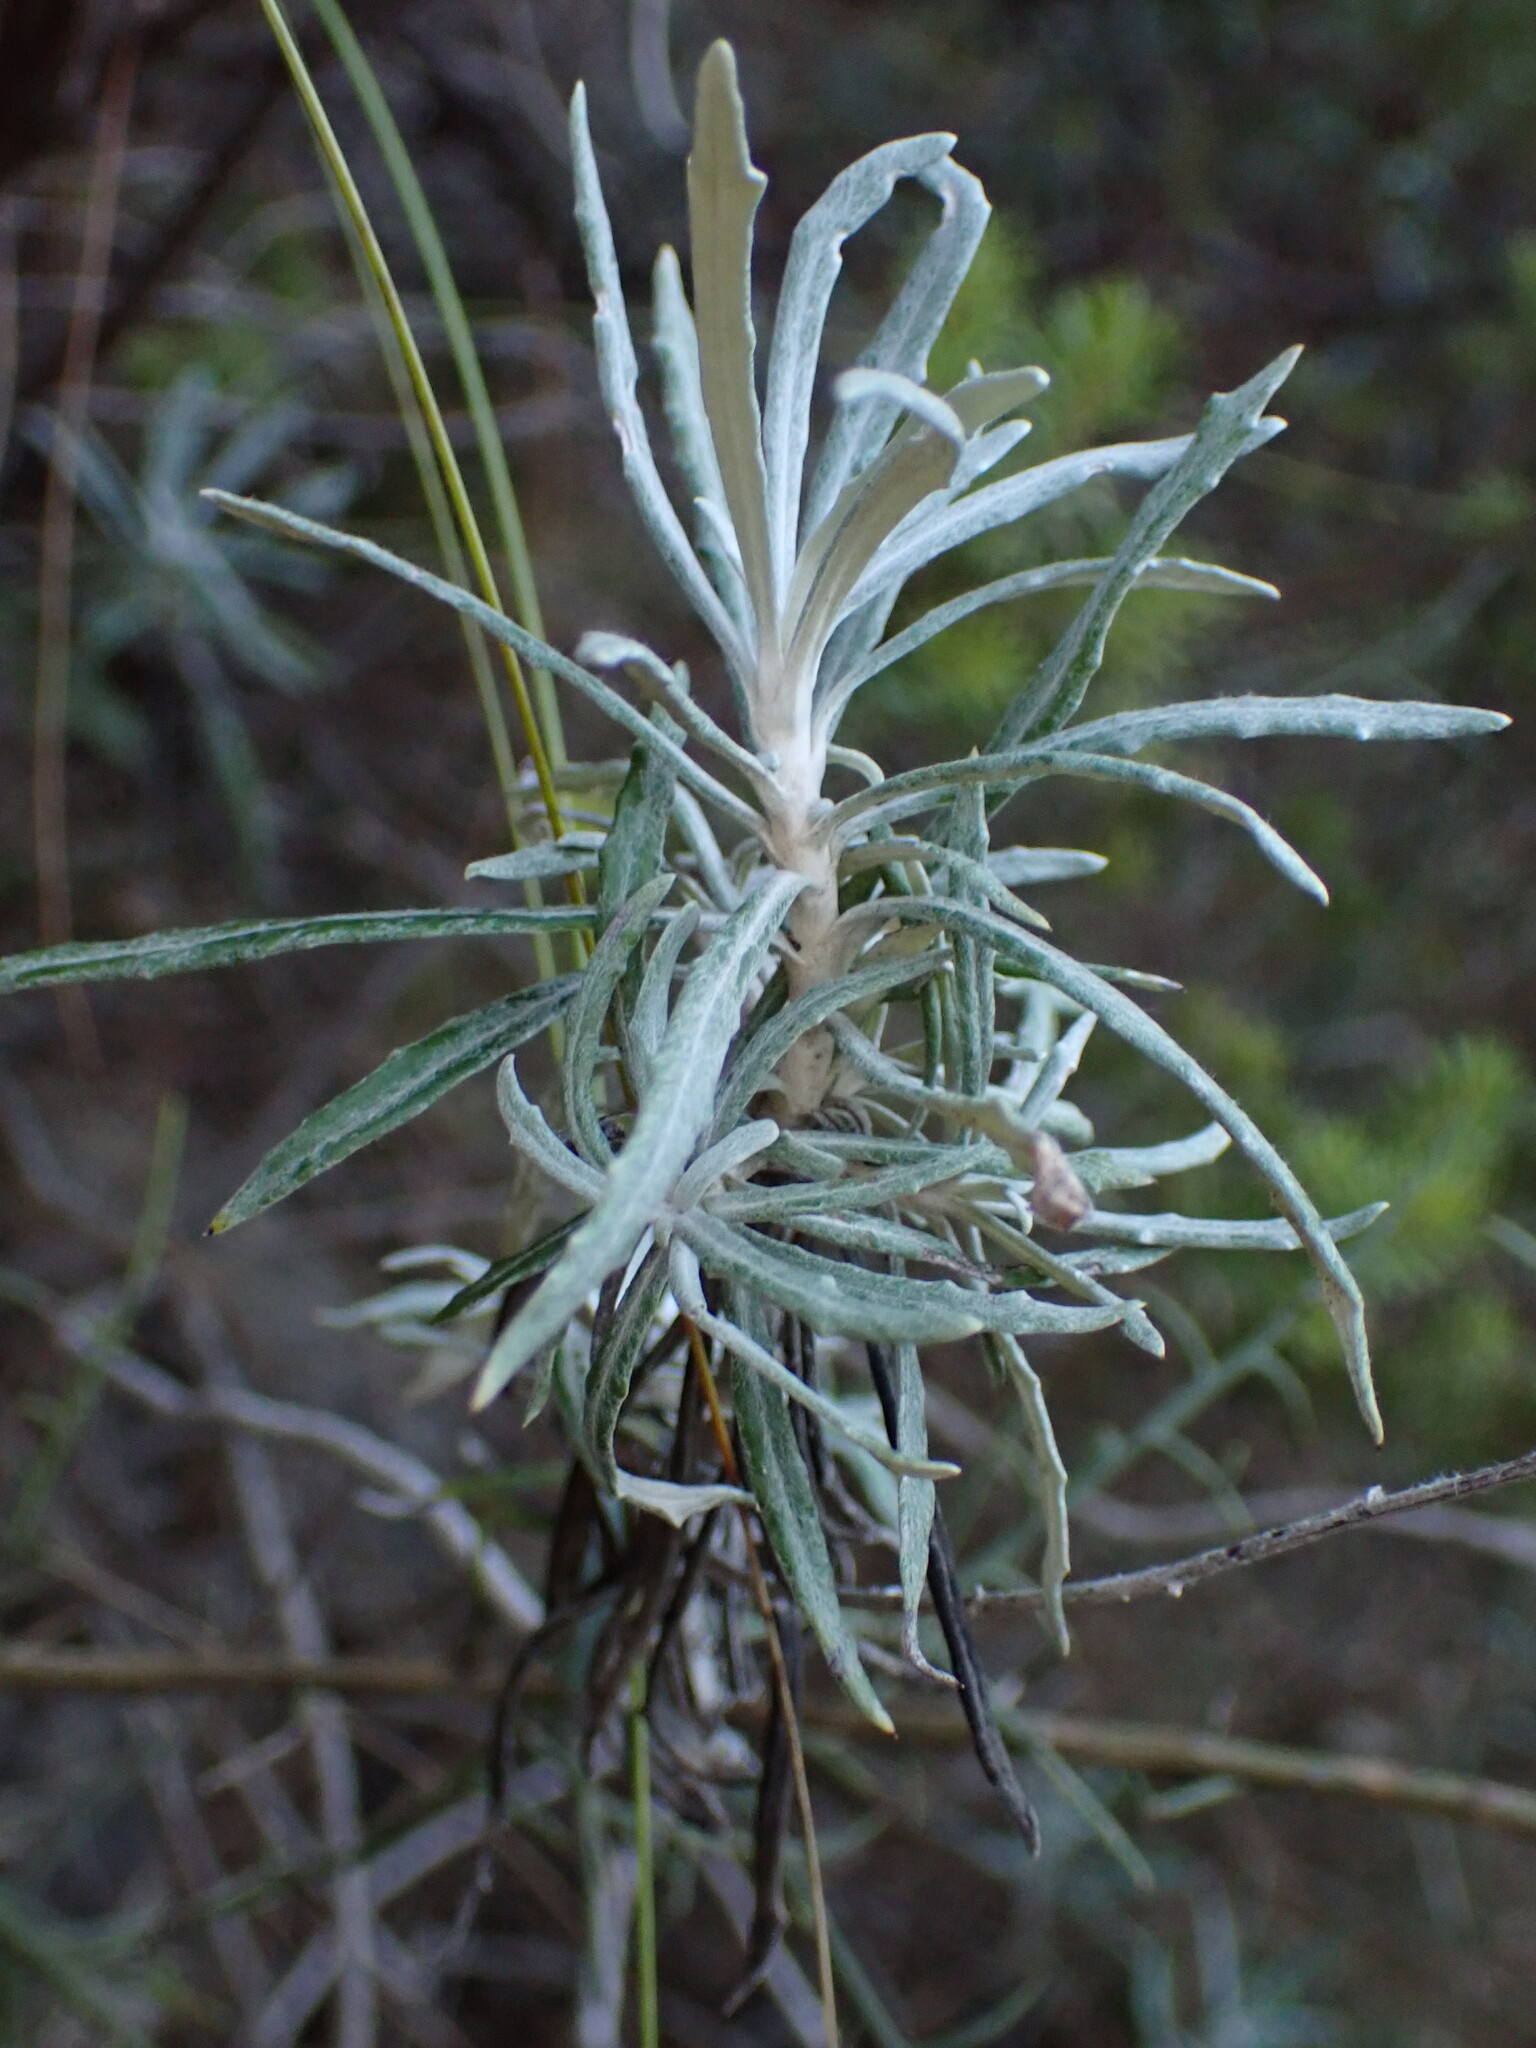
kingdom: Plantae
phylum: Tracheophyta
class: Magnoliopsida
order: Asterales
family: Asteraceae
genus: Staehelina
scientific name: Staehelina dubia
